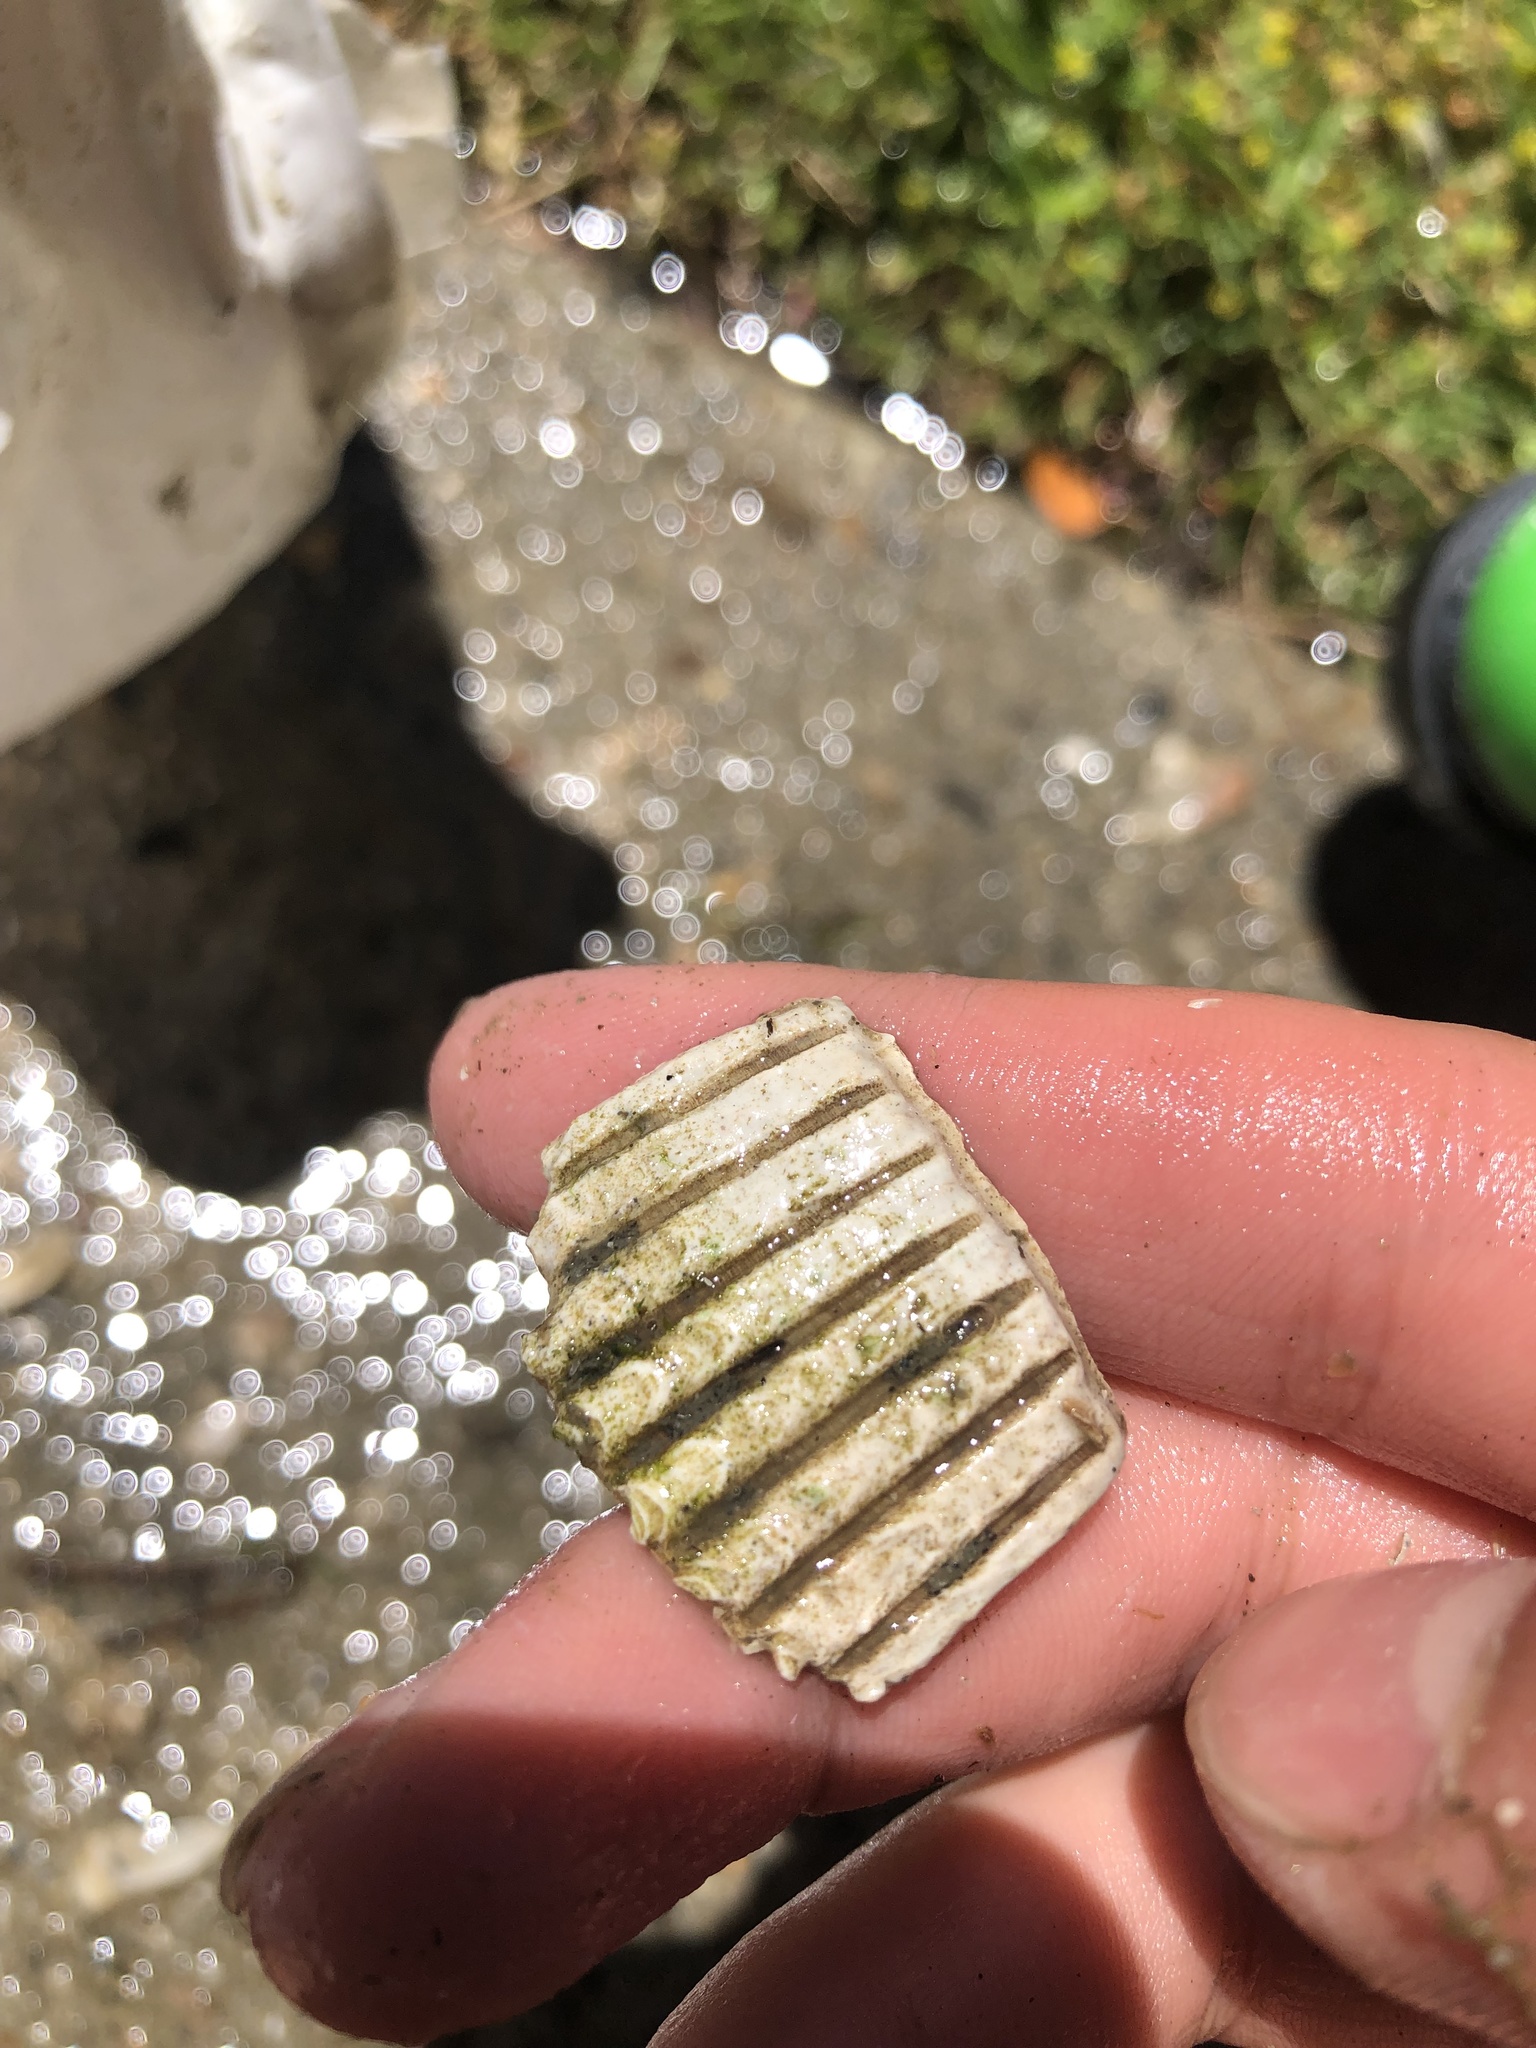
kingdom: Animalia
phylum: Mollusca
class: Bivalvia
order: Cardiida
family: Cardiidae
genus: Clinocardium
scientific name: Clinocardium nuttallii
